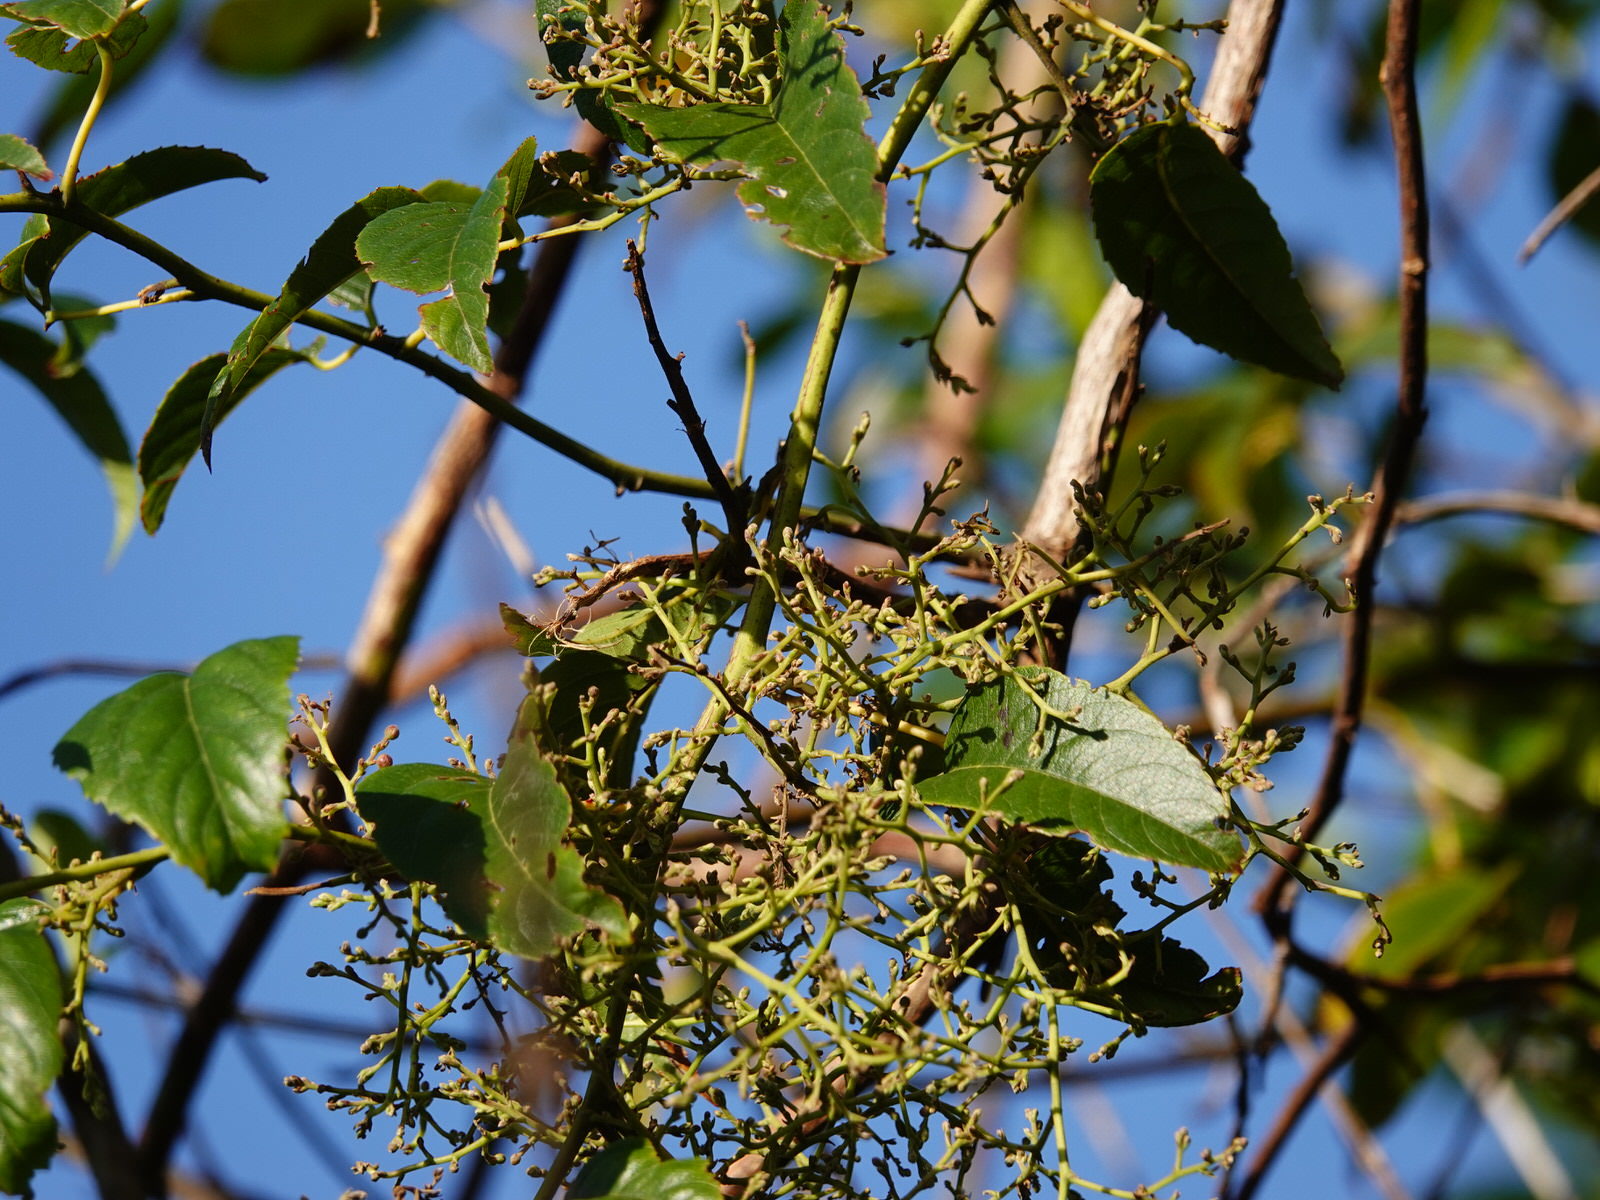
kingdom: Plantae
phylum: Tracheophyta
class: Magnoliopsida
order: Rosales
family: Rosaceae
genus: Rubus
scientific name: Rubus cissoides
